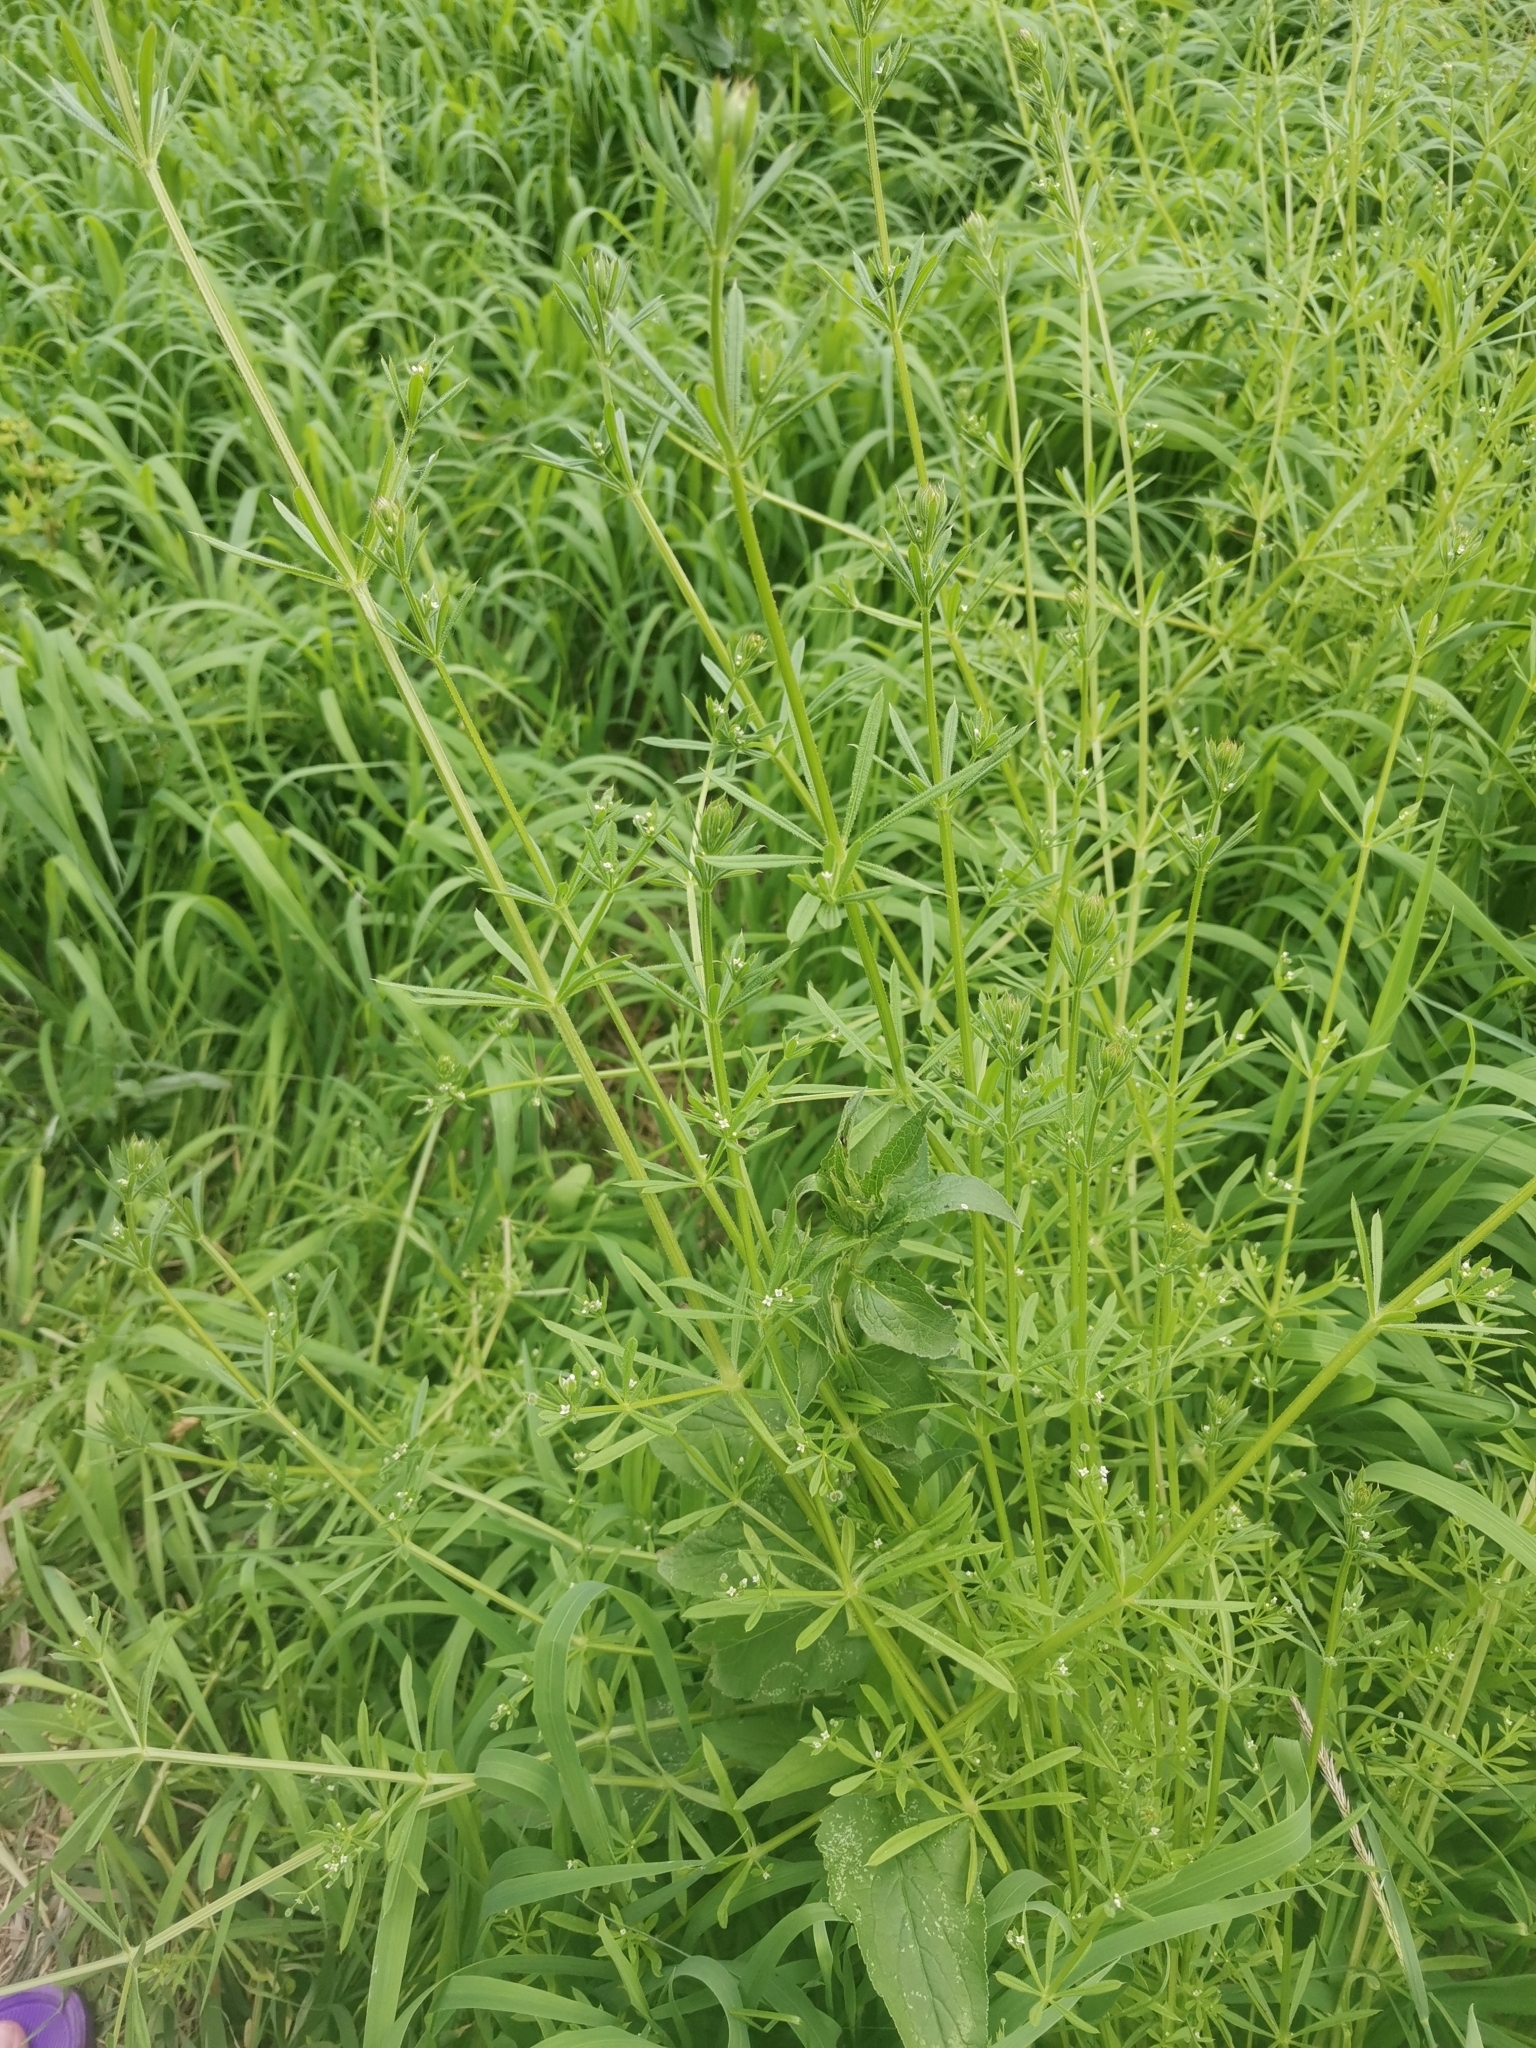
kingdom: Plantae
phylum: Tracheophyta
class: Magnoliopsida
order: Gentianales
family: Rubiaceae
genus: Galium
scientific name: Galium aparine
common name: Cleavers
